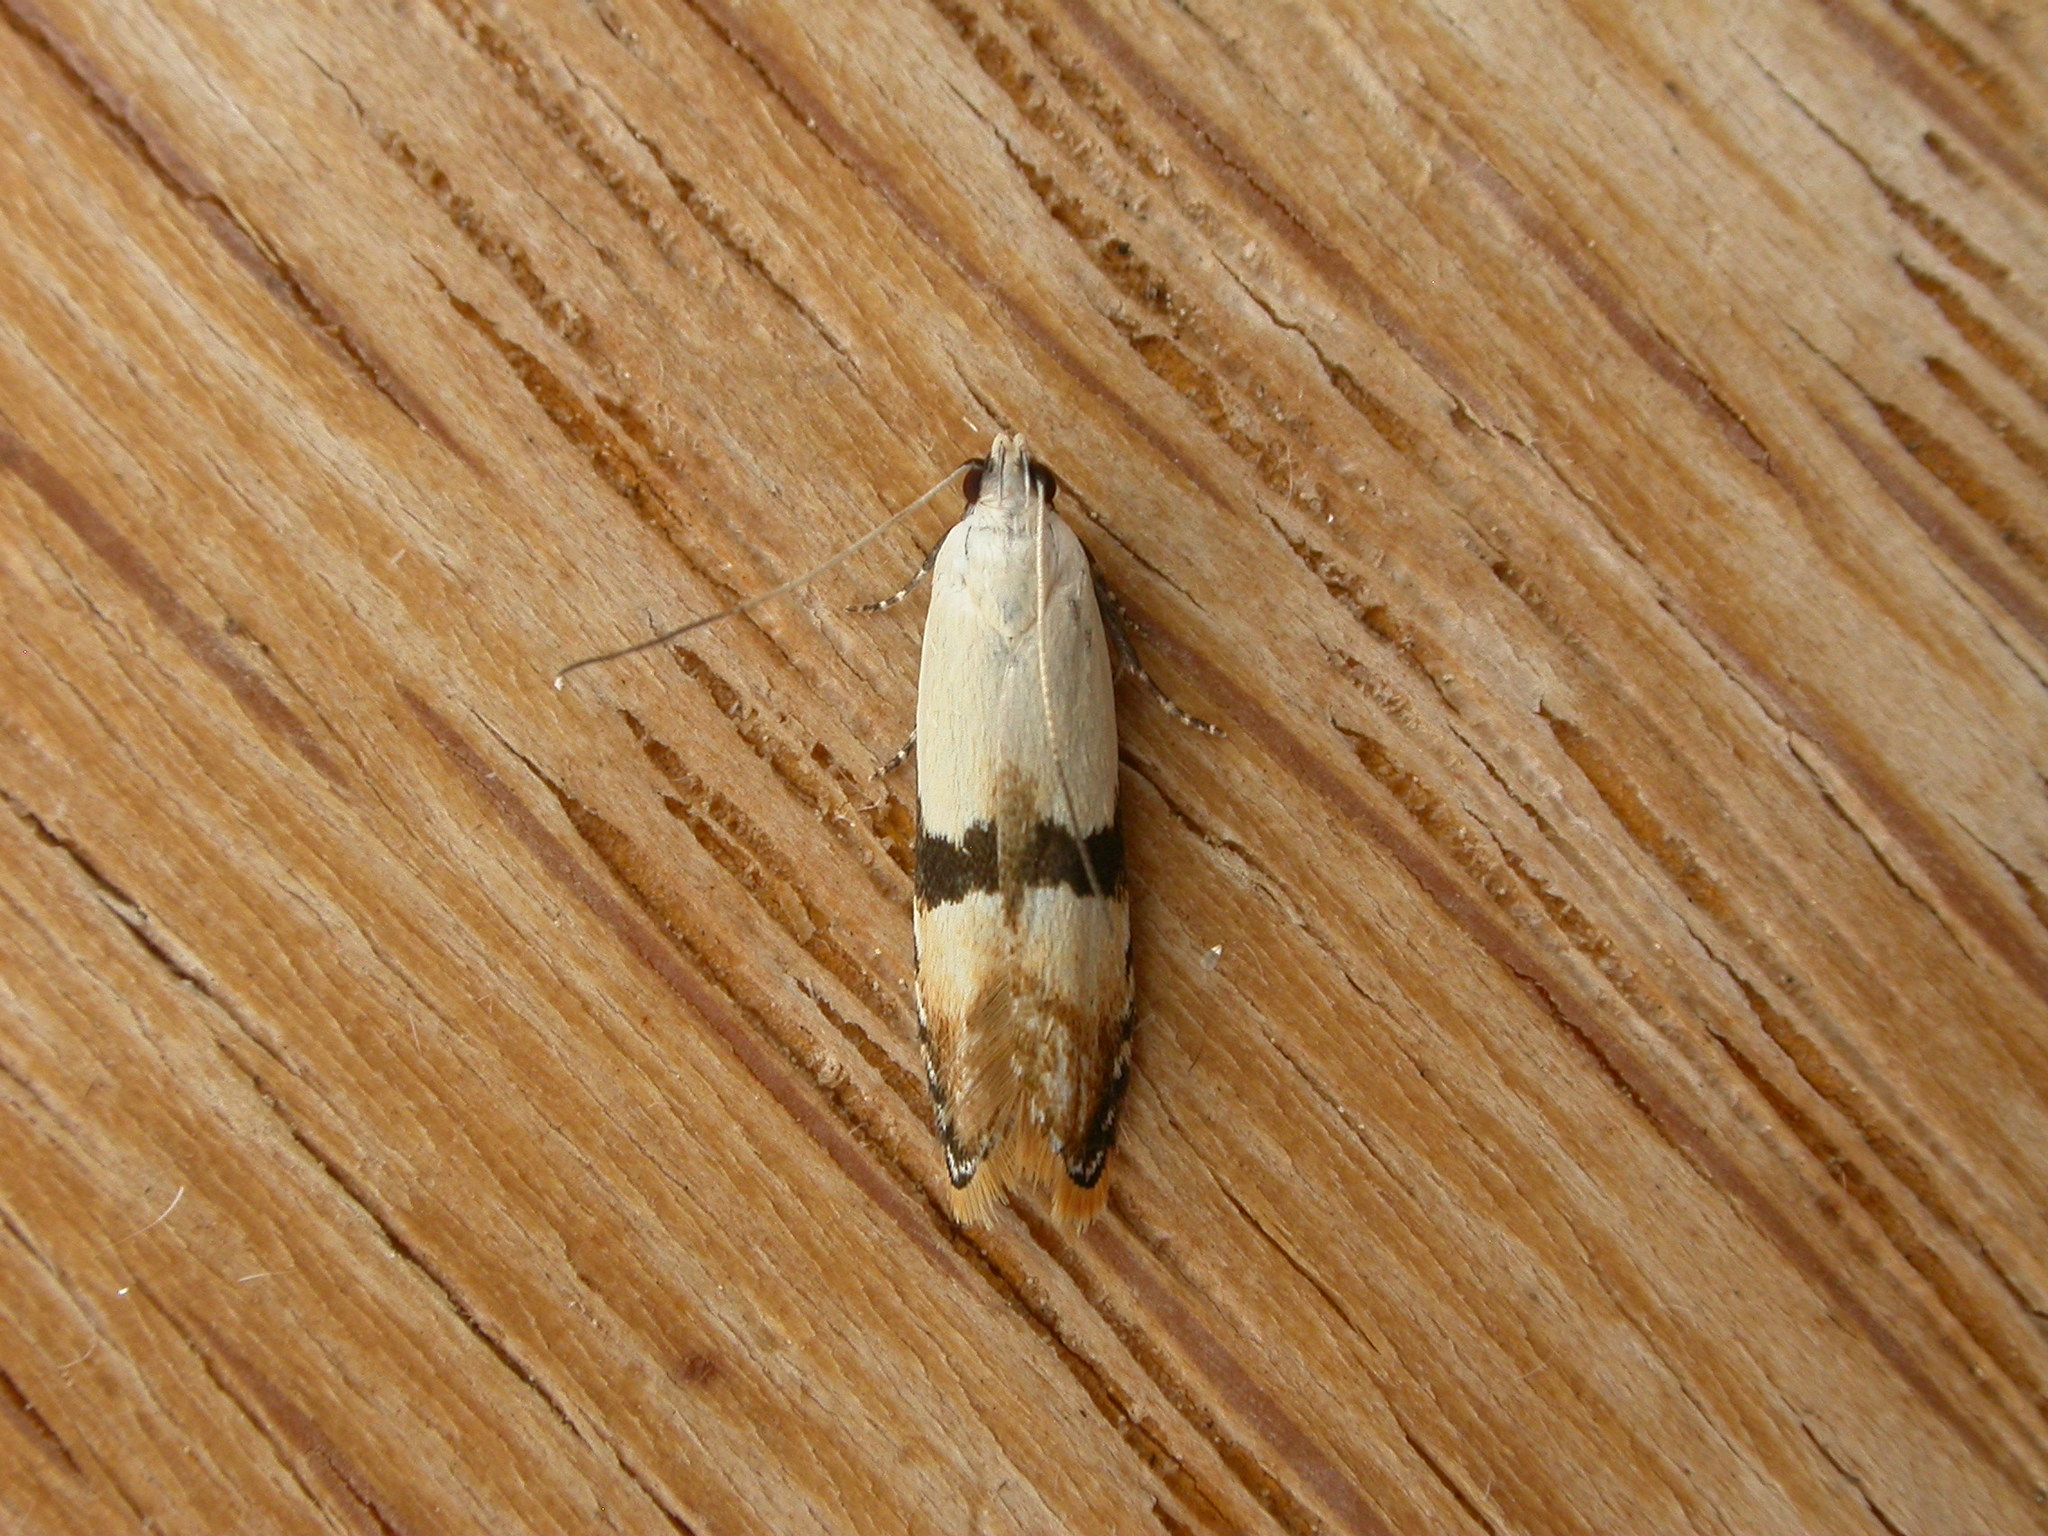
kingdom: Animalia
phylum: Arthropoda
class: Insecta
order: Lepidoptera
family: Gelechiidae
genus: Ardozyga
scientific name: Ardozyga desmatra
